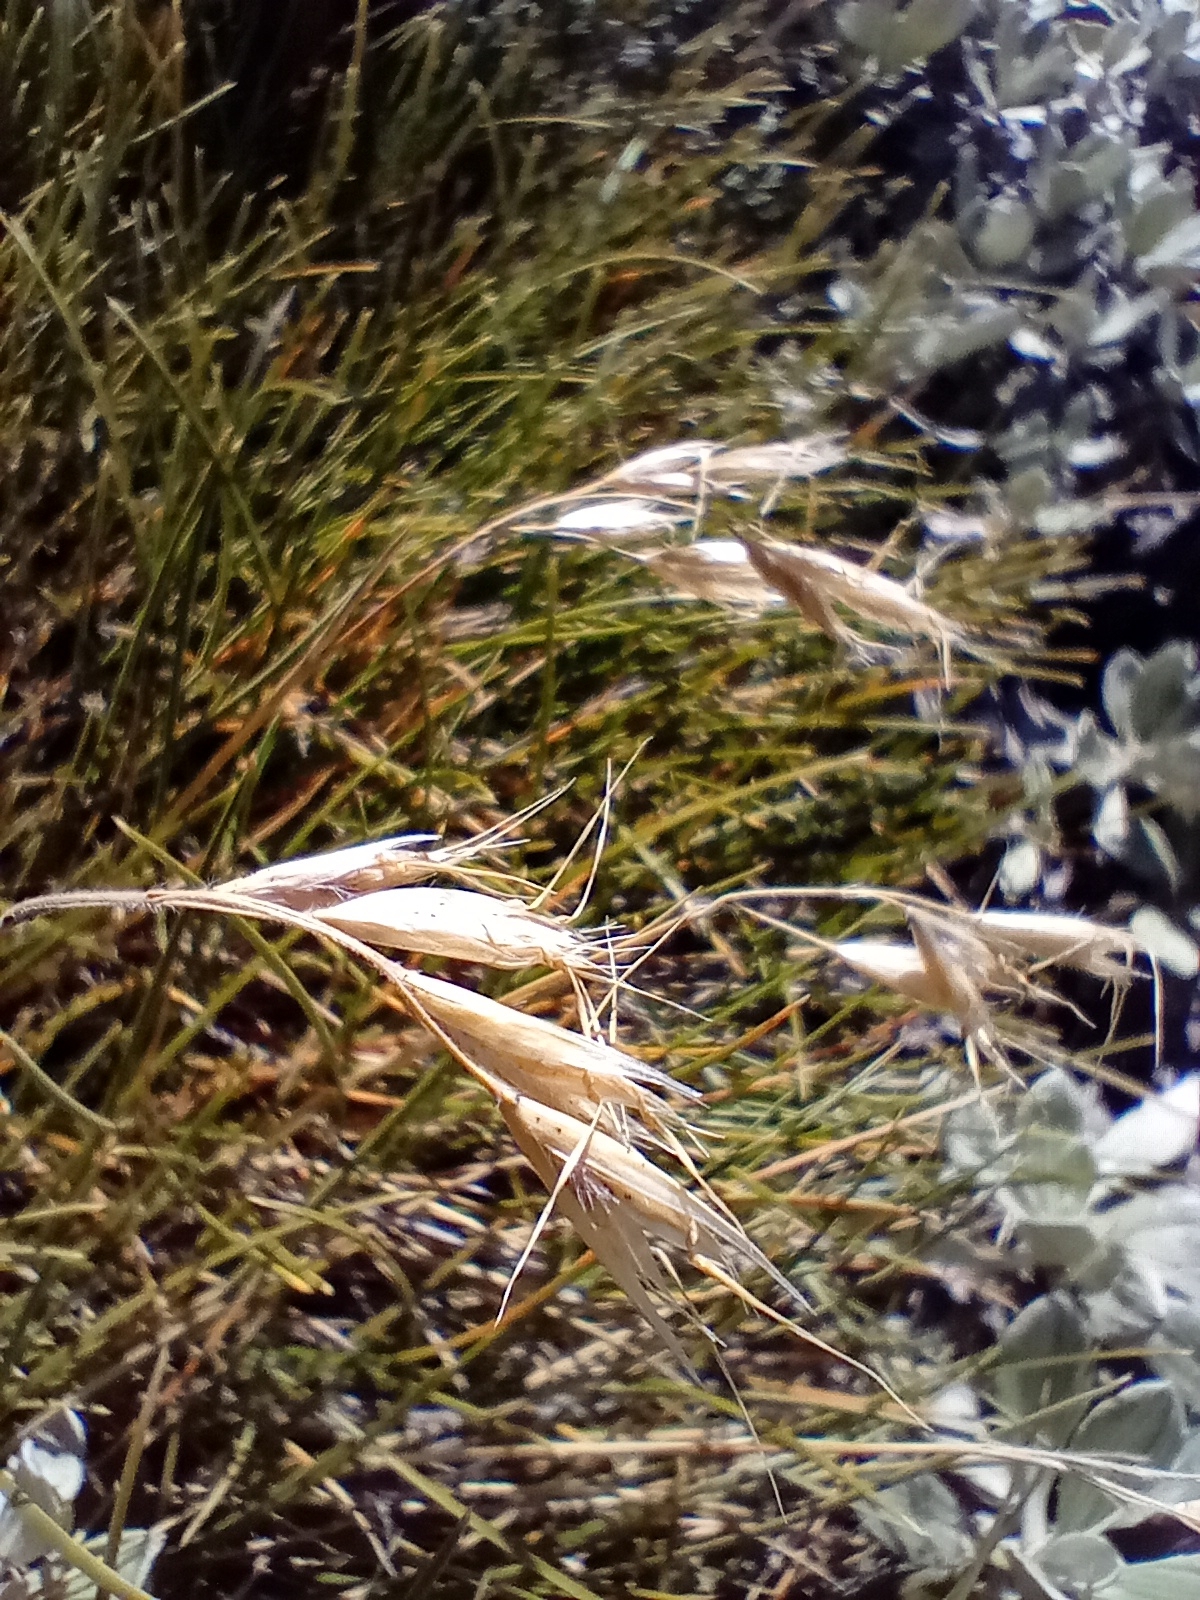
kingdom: Plantae
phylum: Tracheophyta
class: Liliopsida
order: Poales
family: Poaceae
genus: Chionochloa
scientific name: Chionochloa australis
